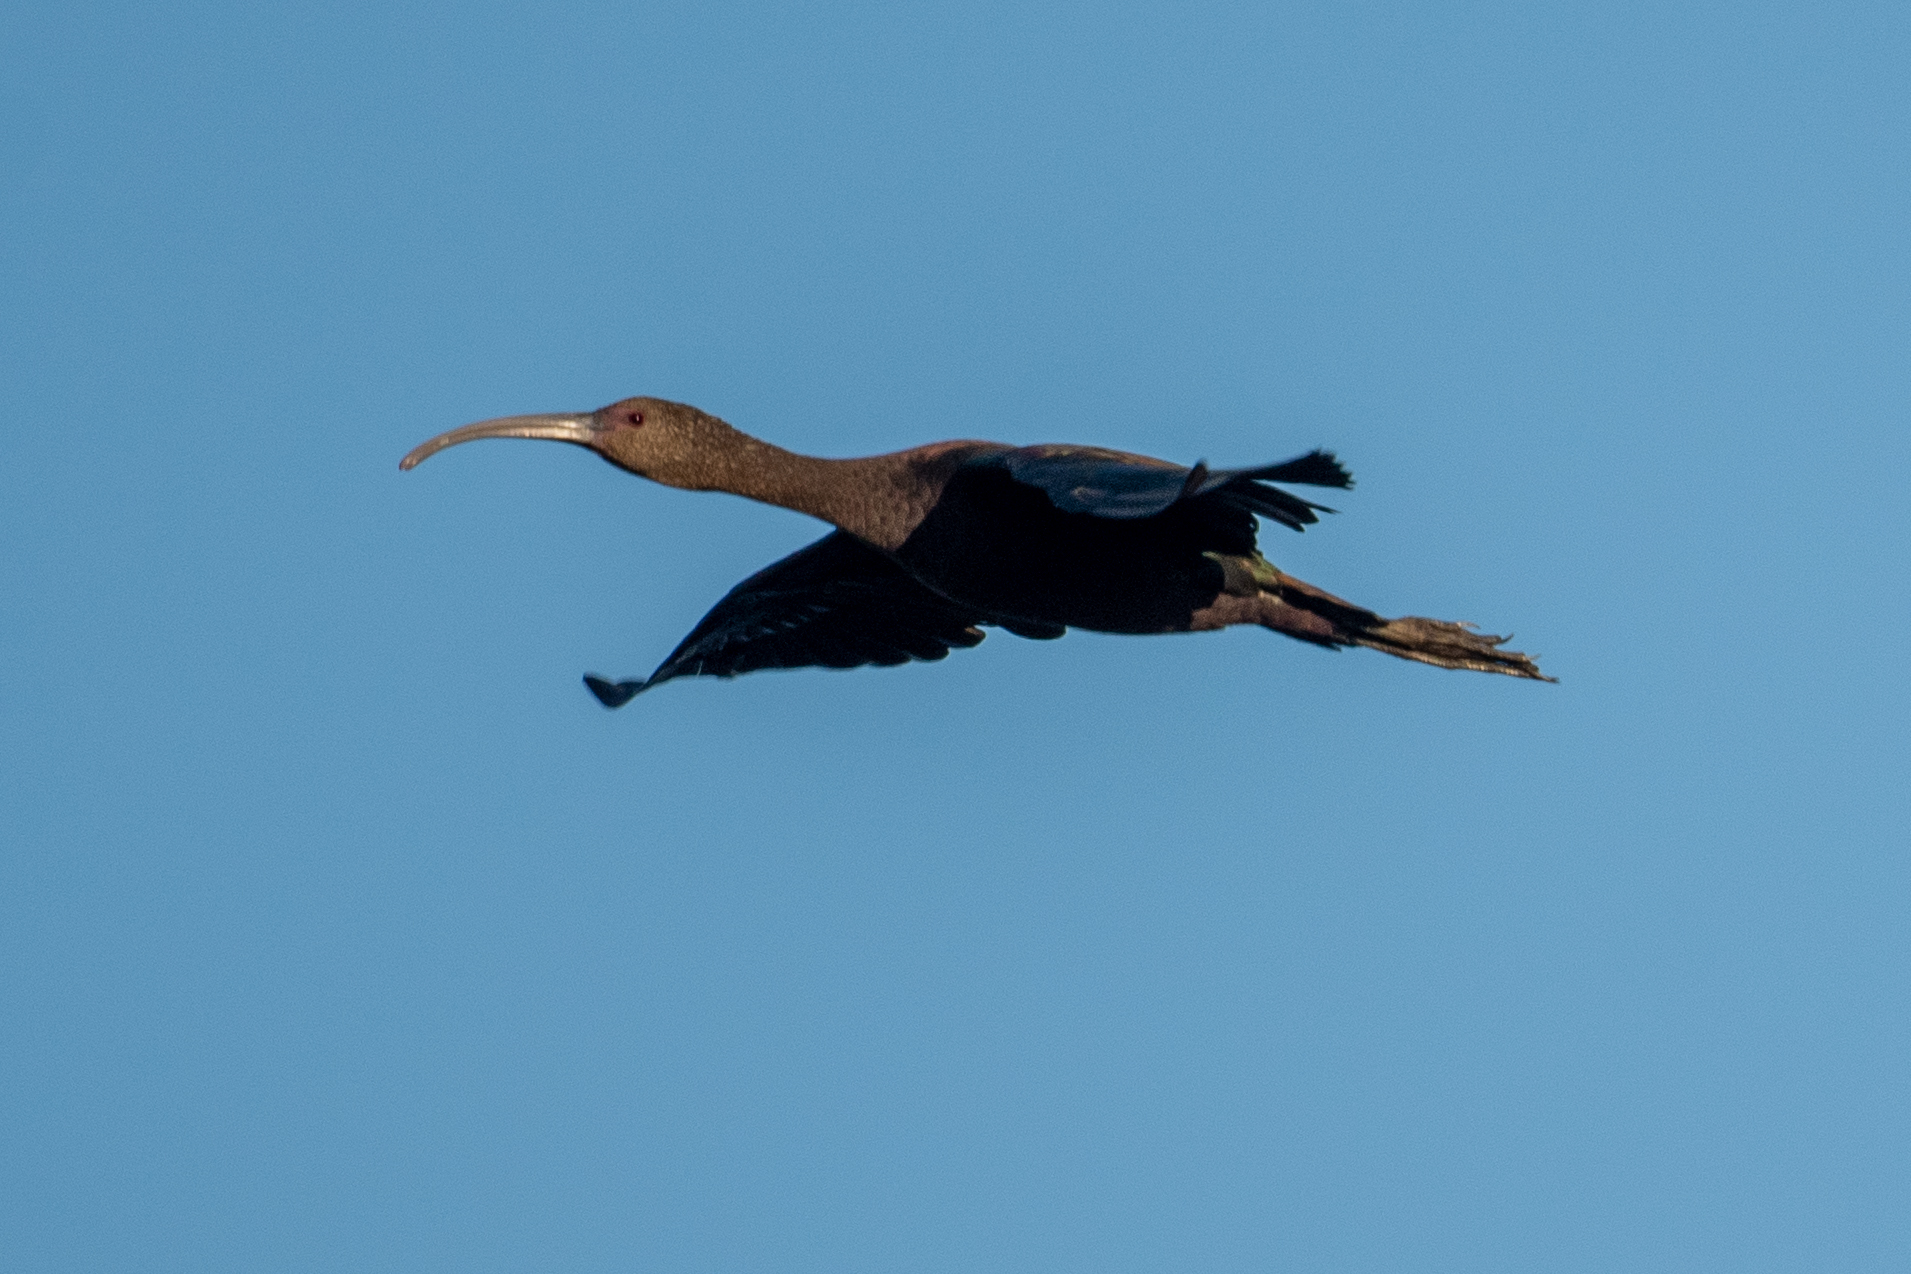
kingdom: Animalia
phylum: Chordata
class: Aves
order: Pelecaniformes
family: Threskiornithidae
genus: Plegadis
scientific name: Plegadis chihi
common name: White-faced ibis
